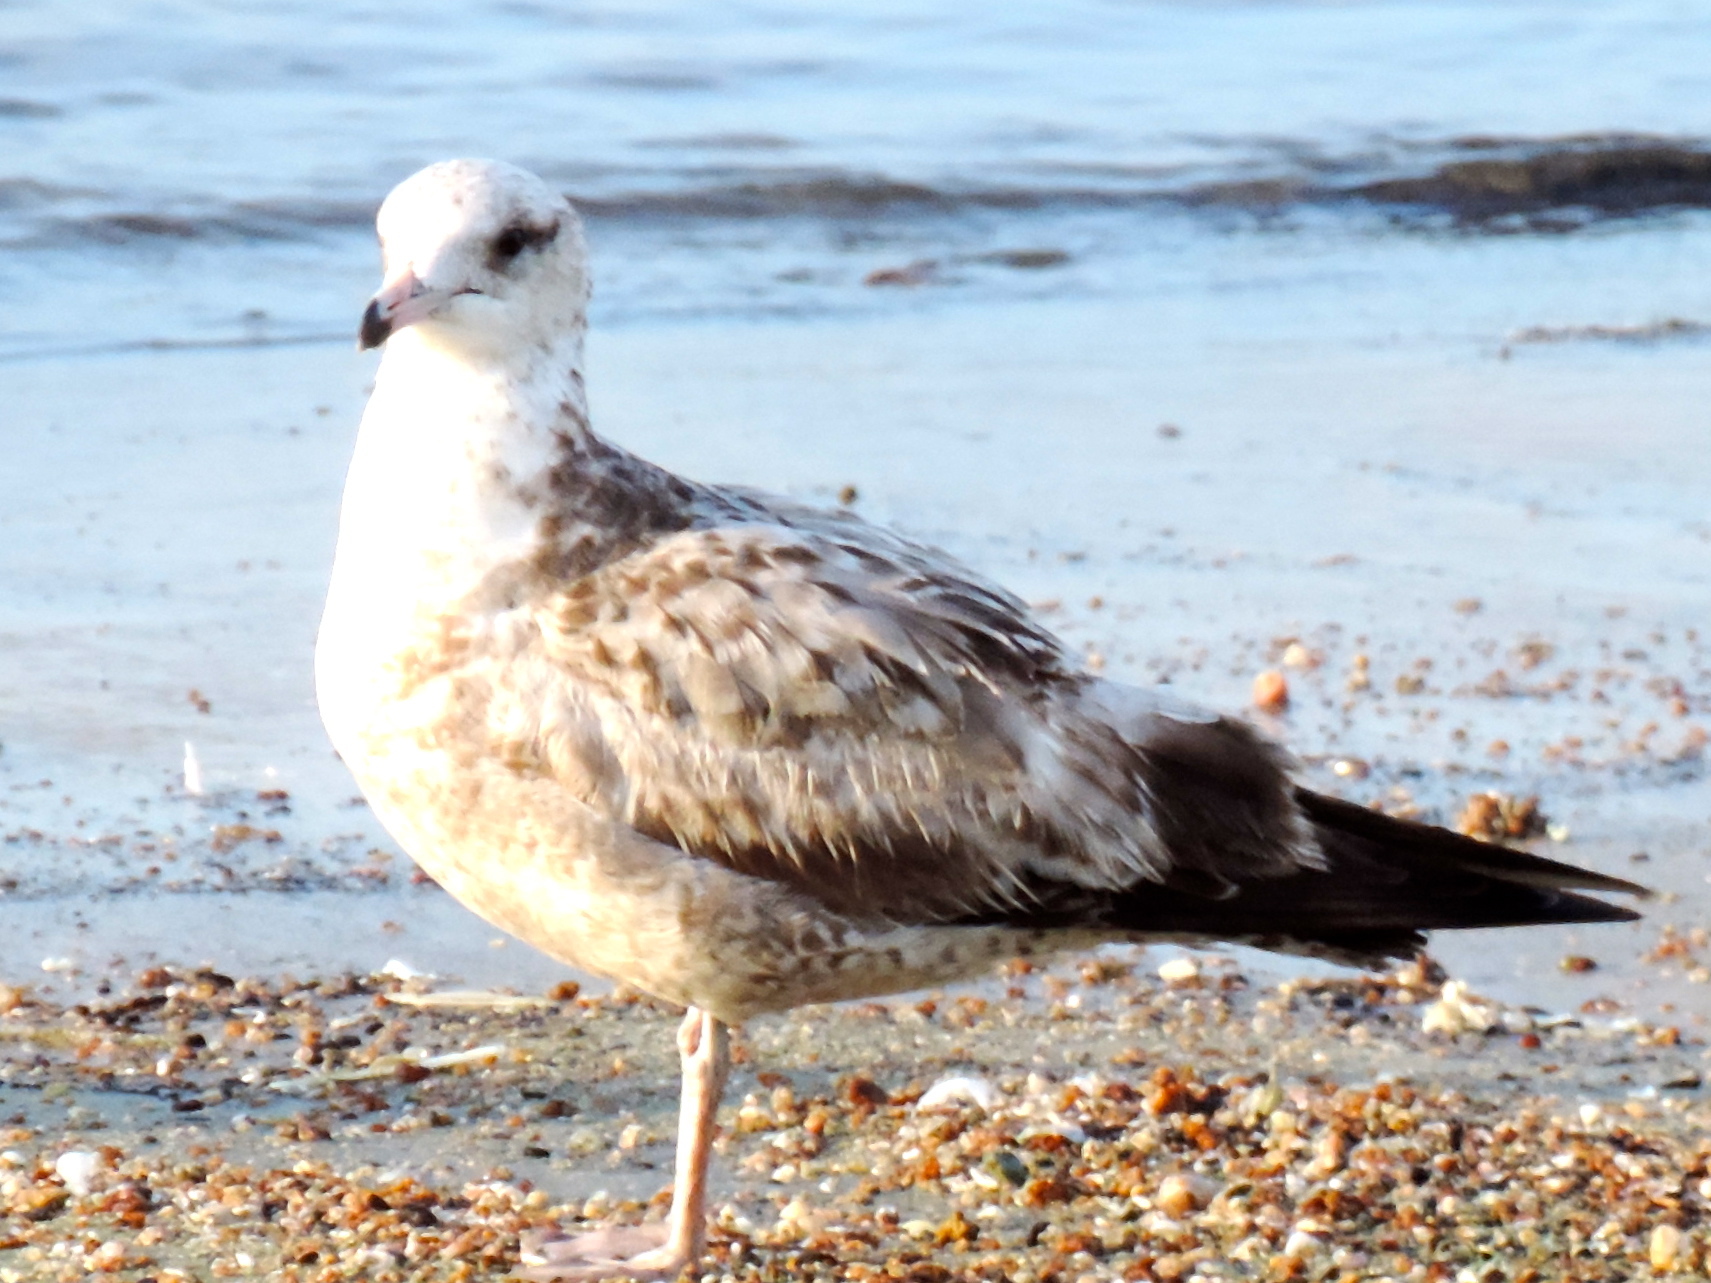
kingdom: Animalia
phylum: Chordata
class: Aves
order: Charadriiformes
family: Laridae
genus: Larus
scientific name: Larus delawarensis
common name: Ring-billed gull
